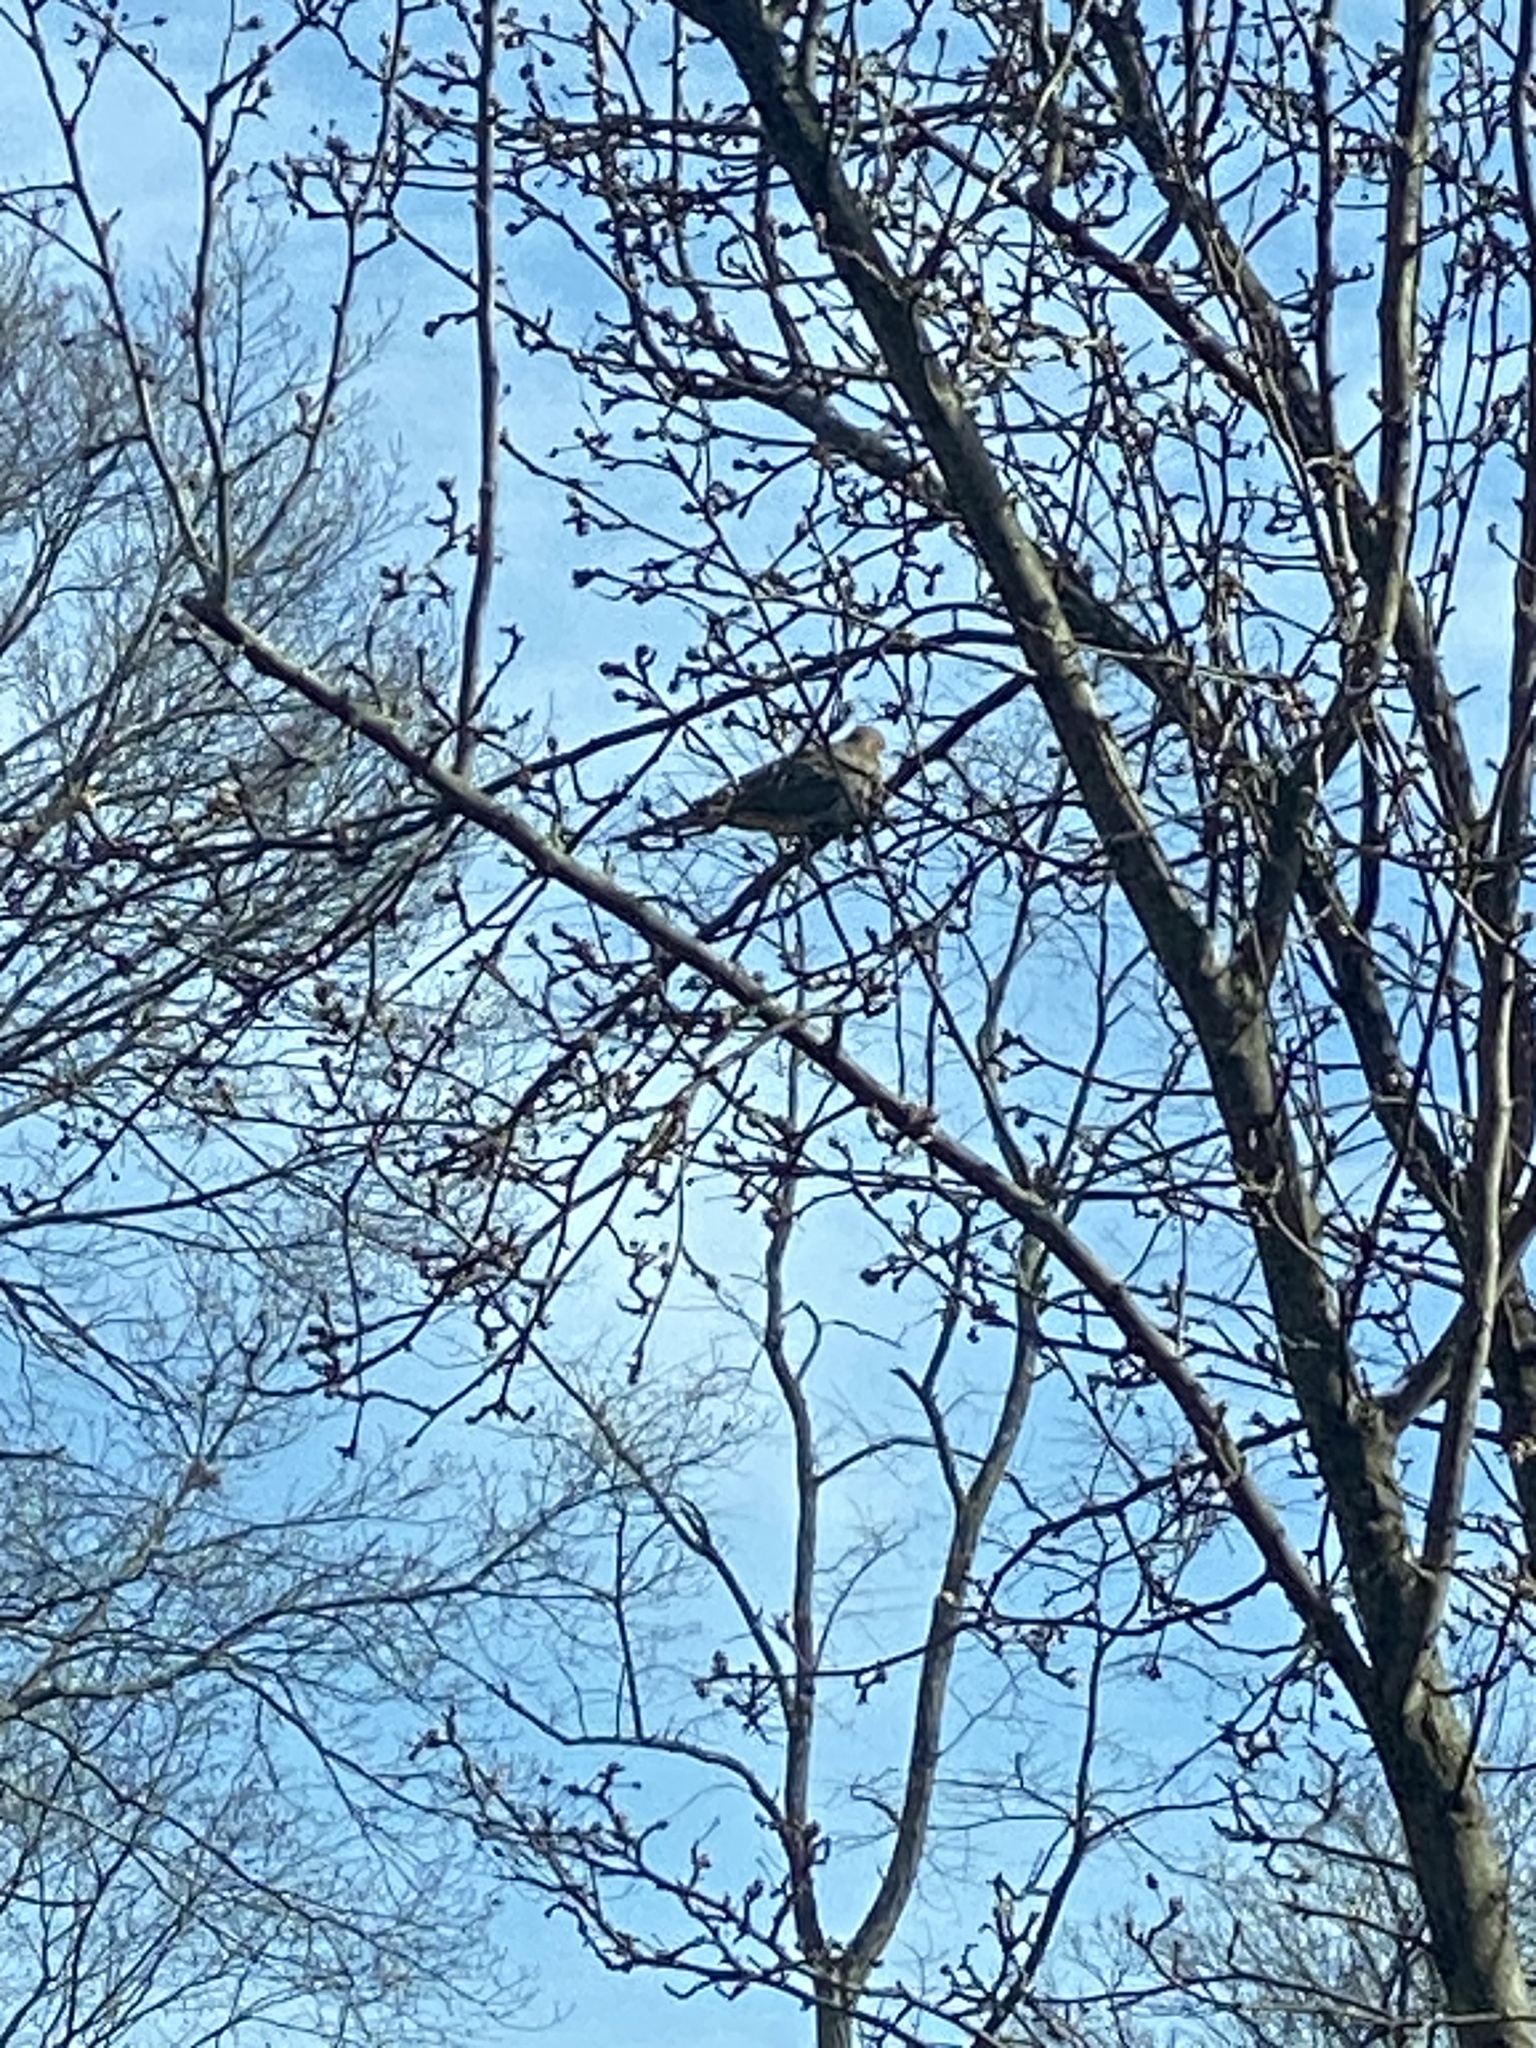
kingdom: Animalia
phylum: Chordata
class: Aves
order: Columbiformes
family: Columbidae
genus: Zenaida
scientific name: Zenaida macroura
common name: Mourning dove
